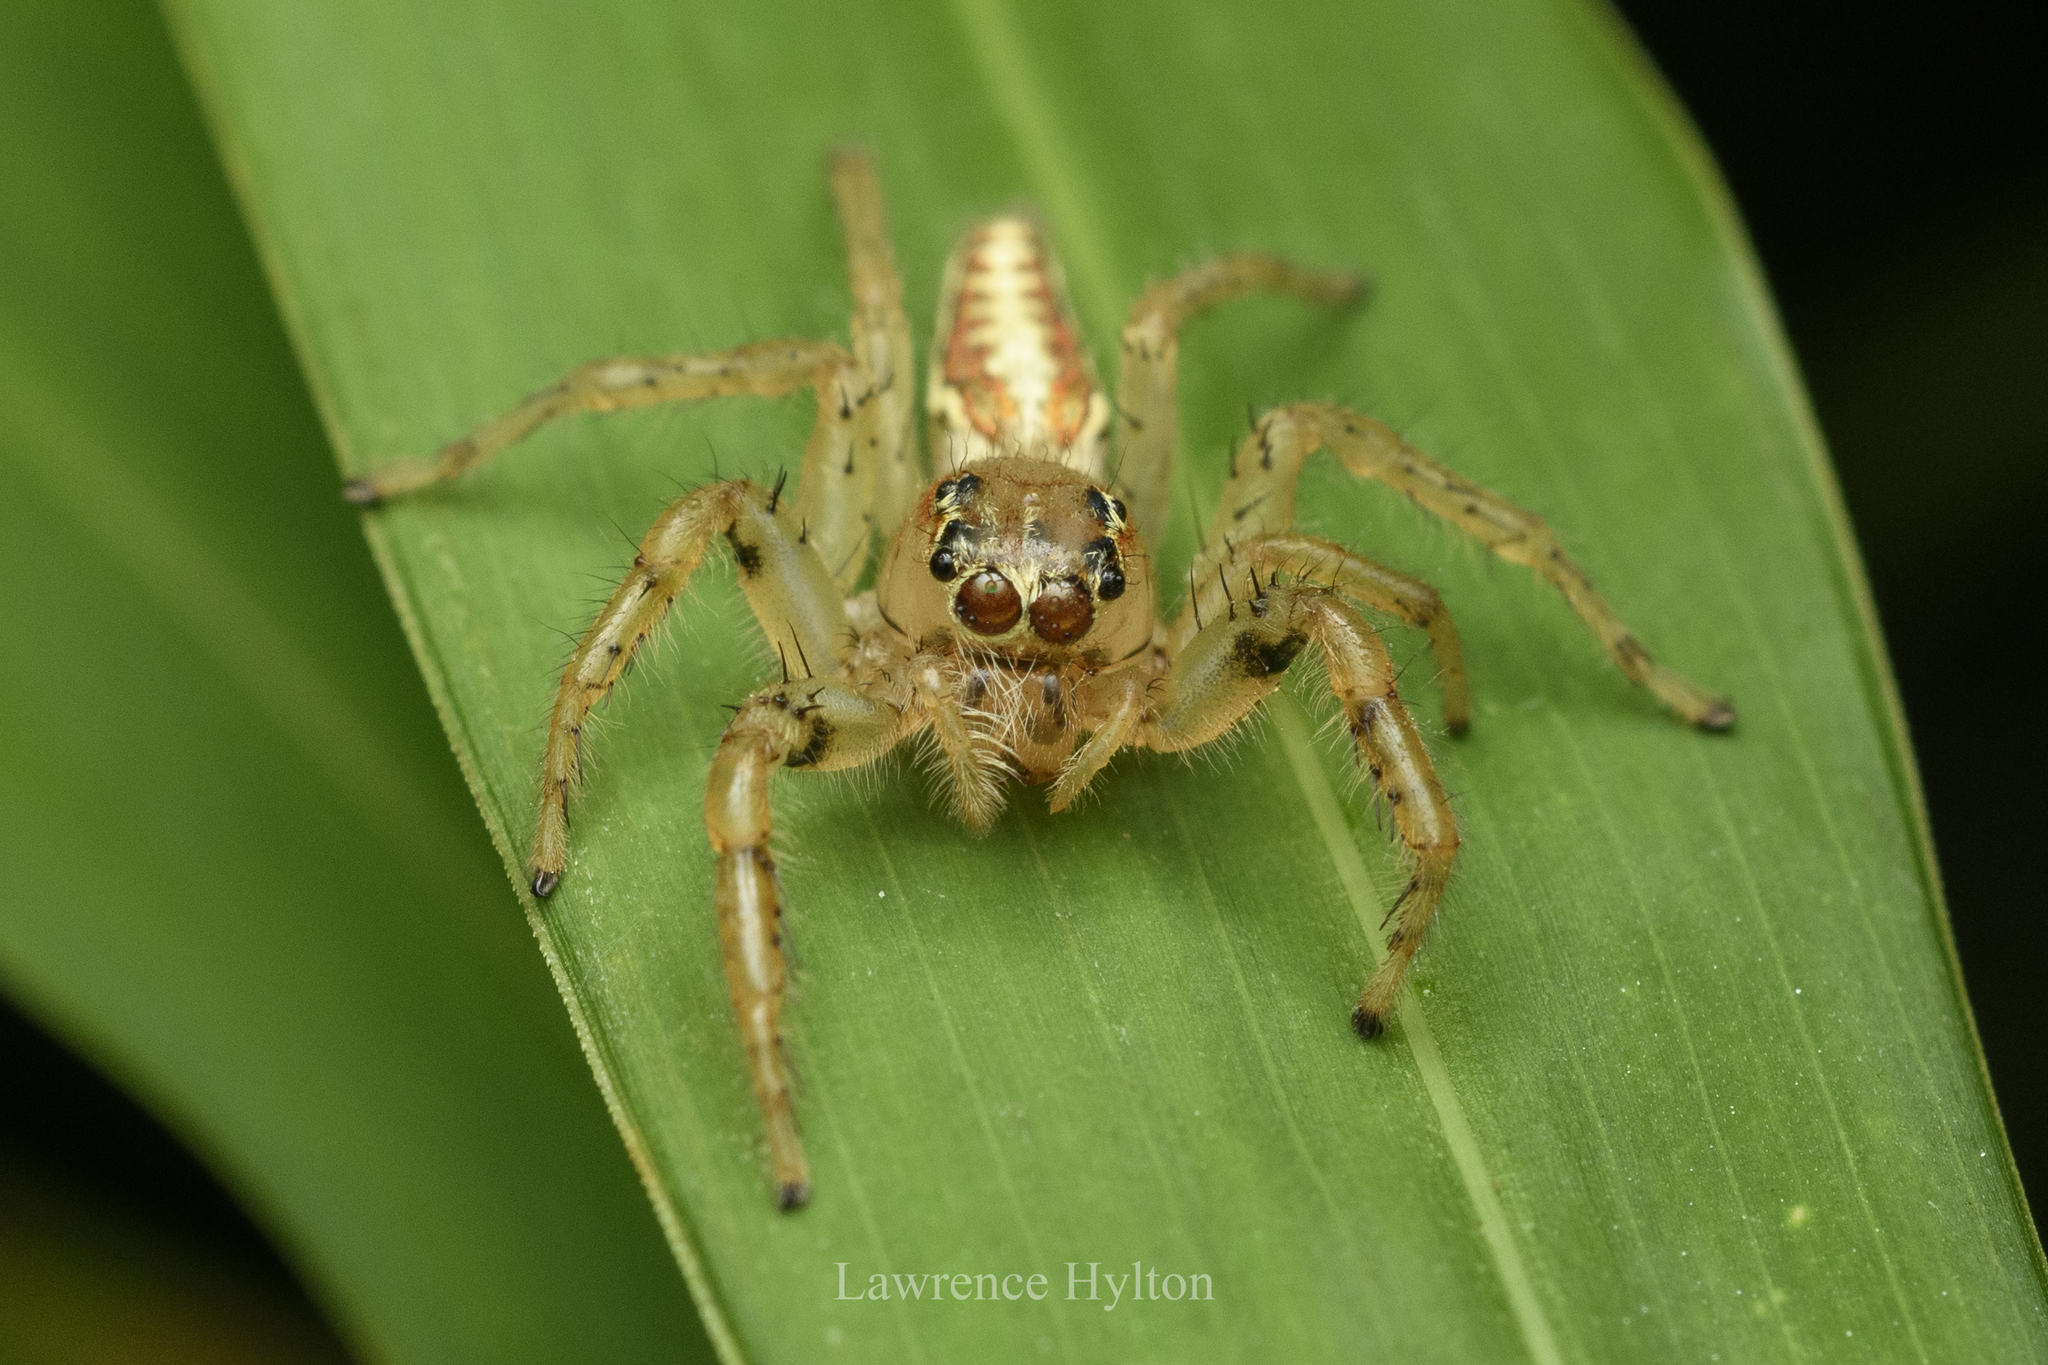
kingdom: Animalia
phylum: Arthropoda
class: Arachnida
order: Araneae
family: Salticidae
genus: Telamonia
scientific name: Telamonia caprina
